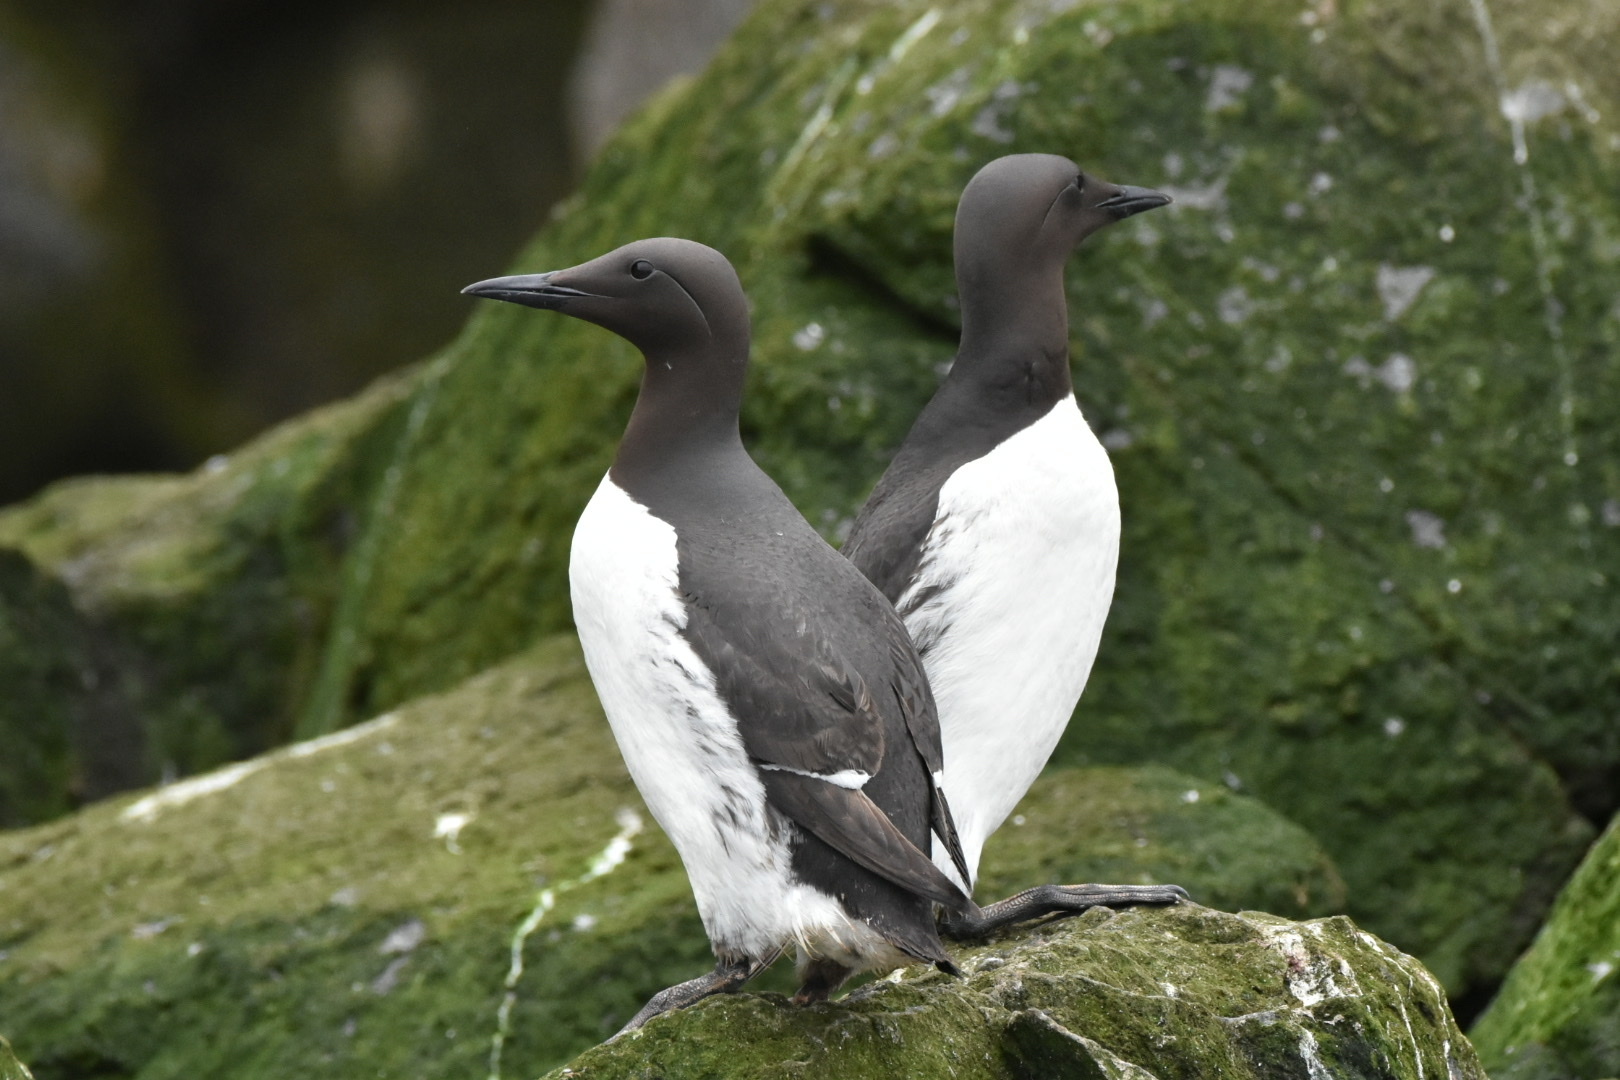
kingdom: Animalia
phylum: Chordata
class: Aves
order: Charadriiformes
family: Alcidae
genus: Uria
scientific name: Uria aalge
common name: Common murre
